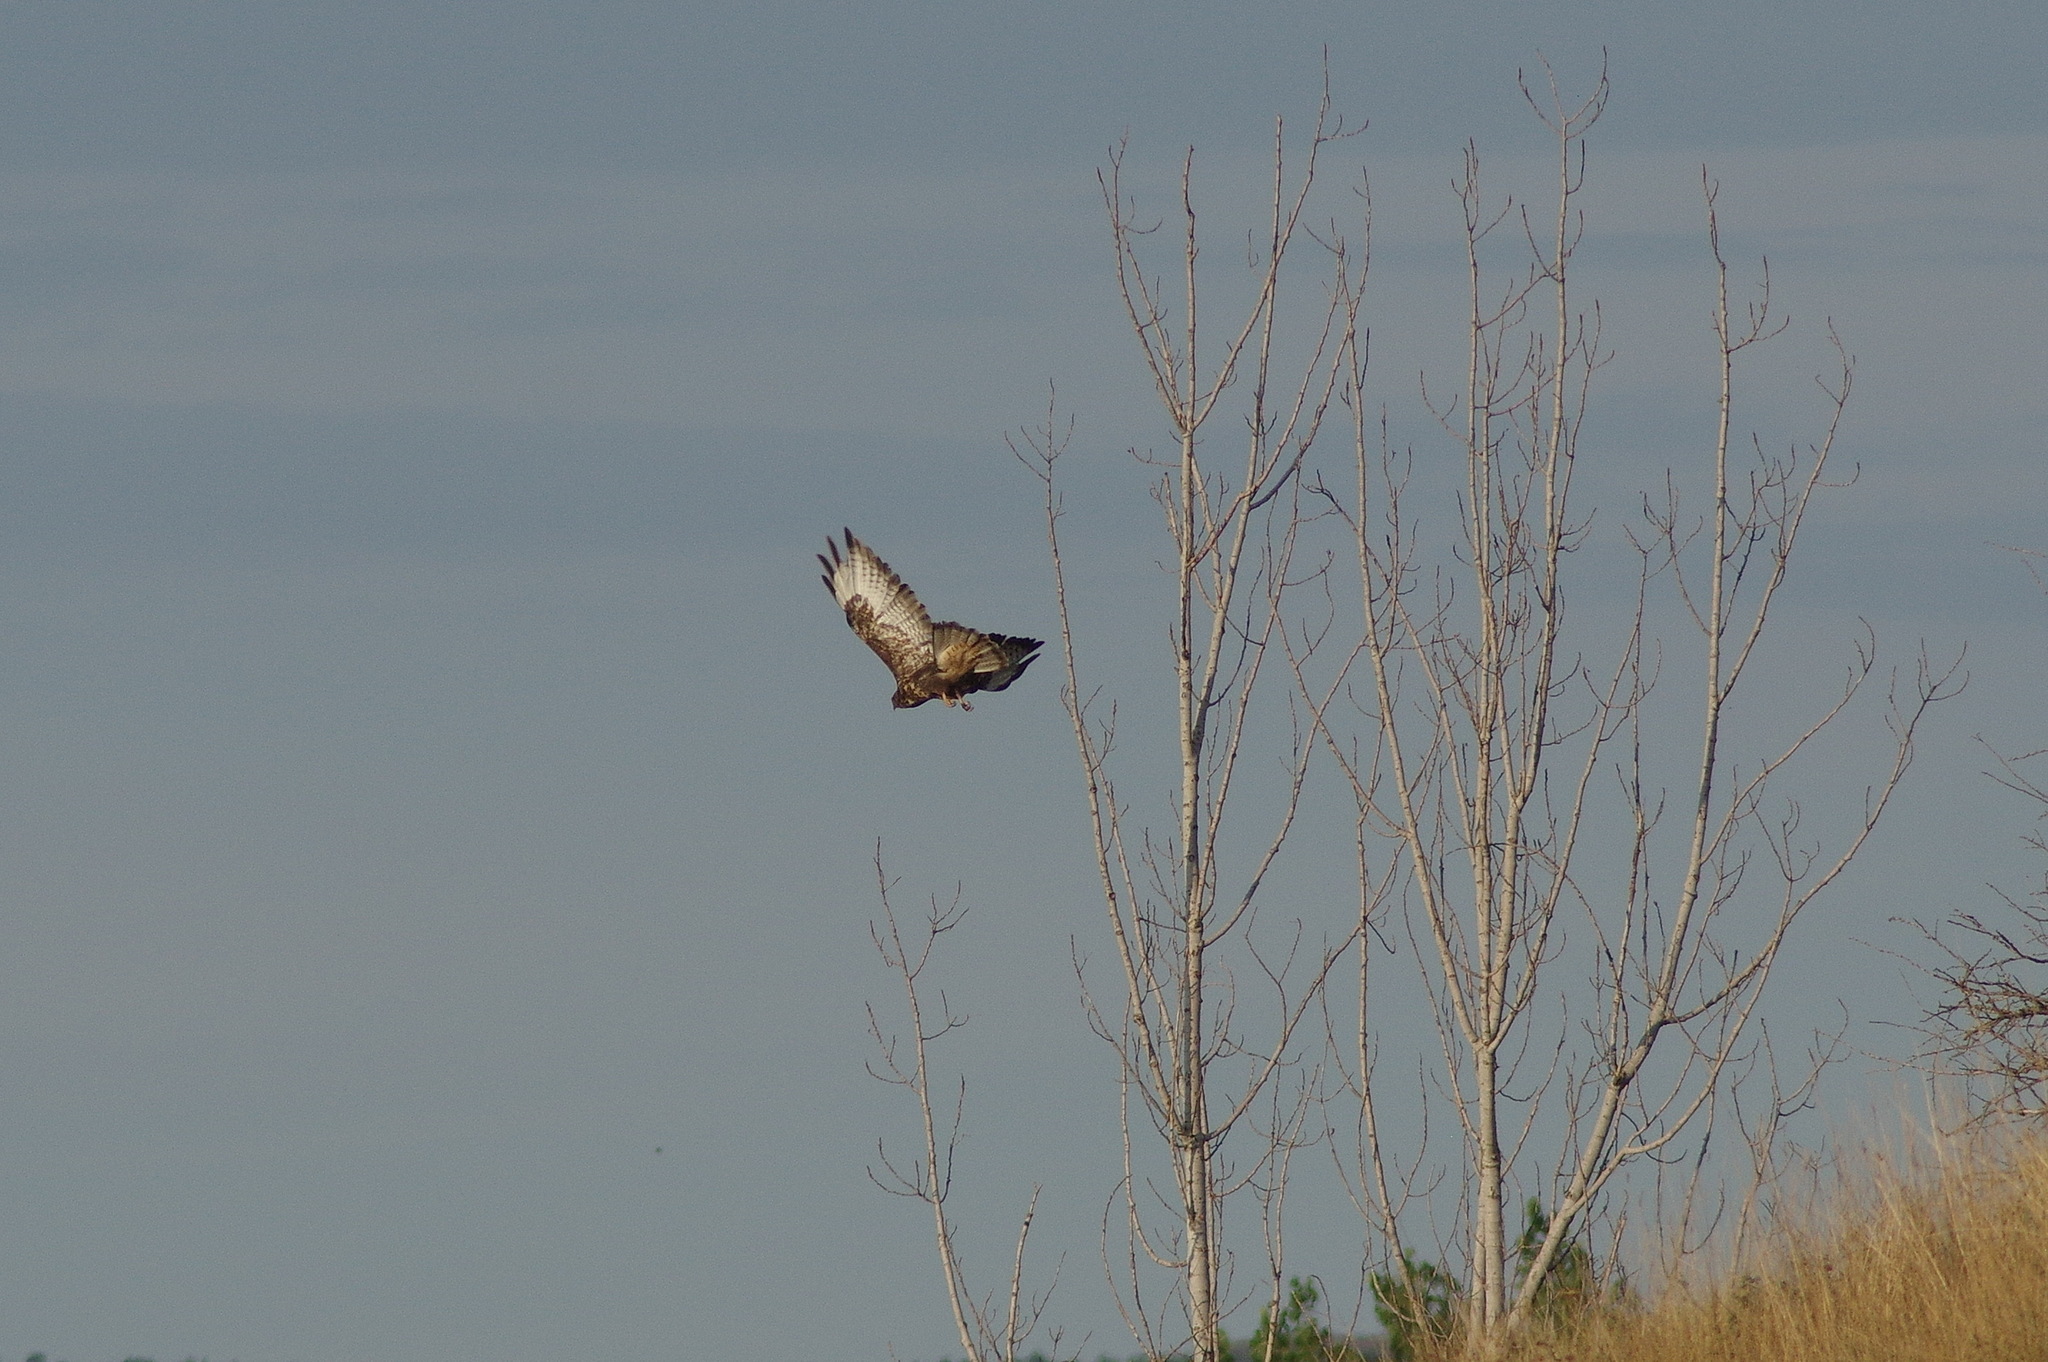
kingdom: Animalia
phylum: Chordata
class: Aves
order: Accipitriformes
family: Accipitridae
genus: Buteo
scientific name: Buteo buteo
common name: Common buzzard
